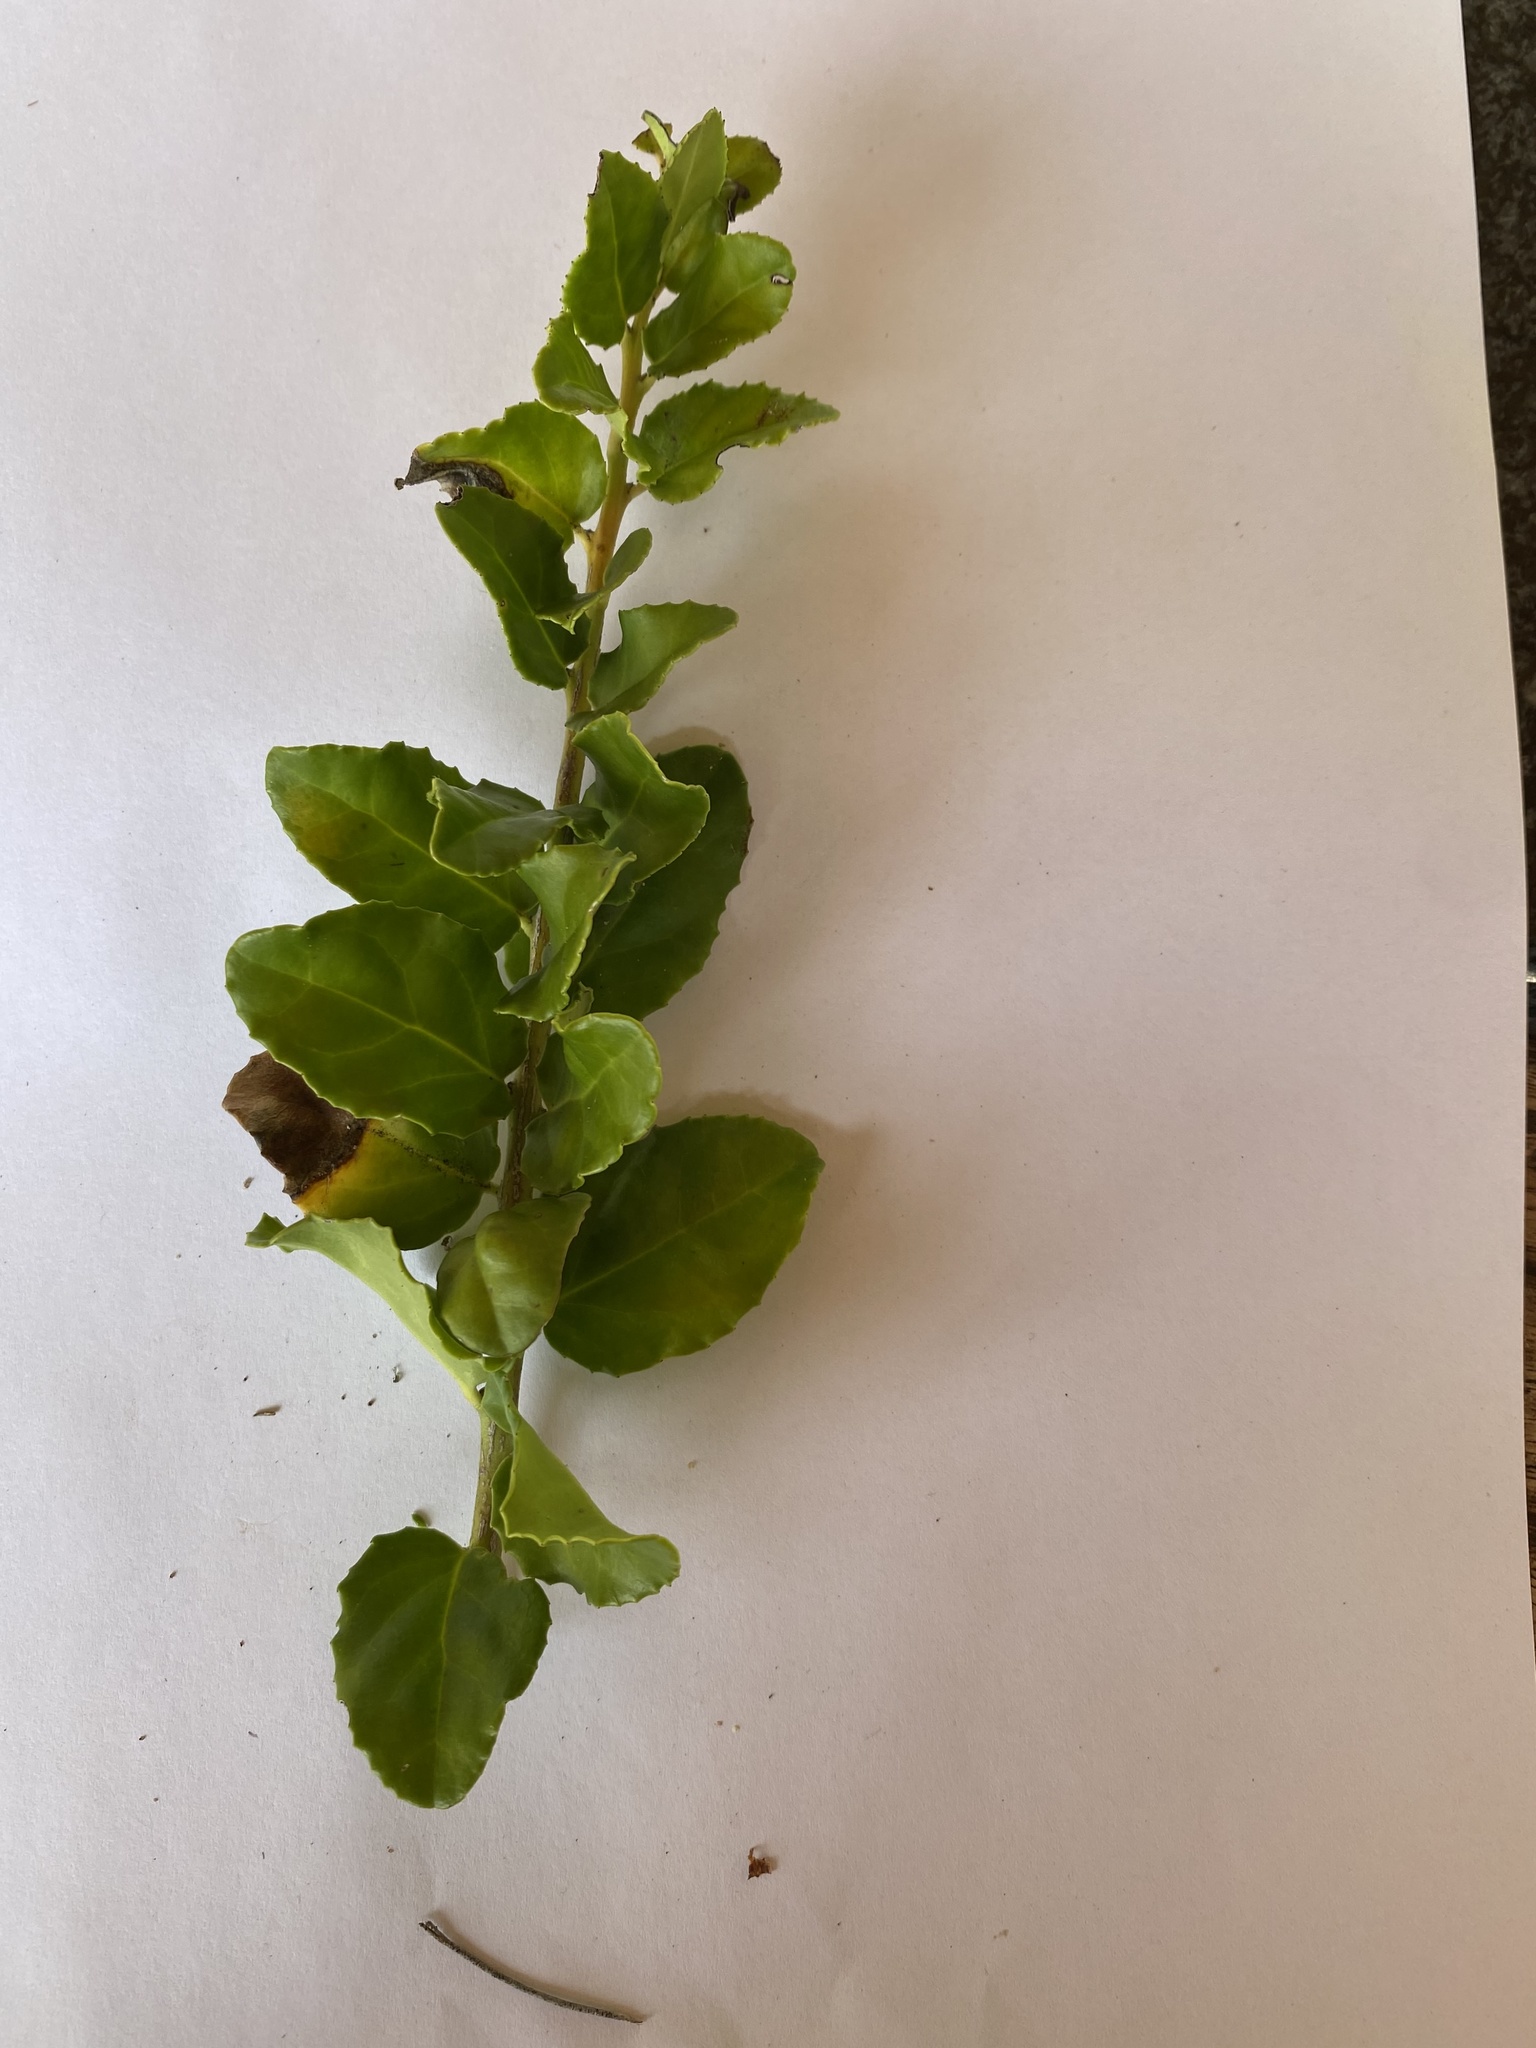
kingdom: Plantae
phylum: Tracheophyta
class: Magnoliopsida
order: Celastrales
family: Celastraceae
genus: Mystroxylon
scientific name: Mystroxylon aethiopicum
